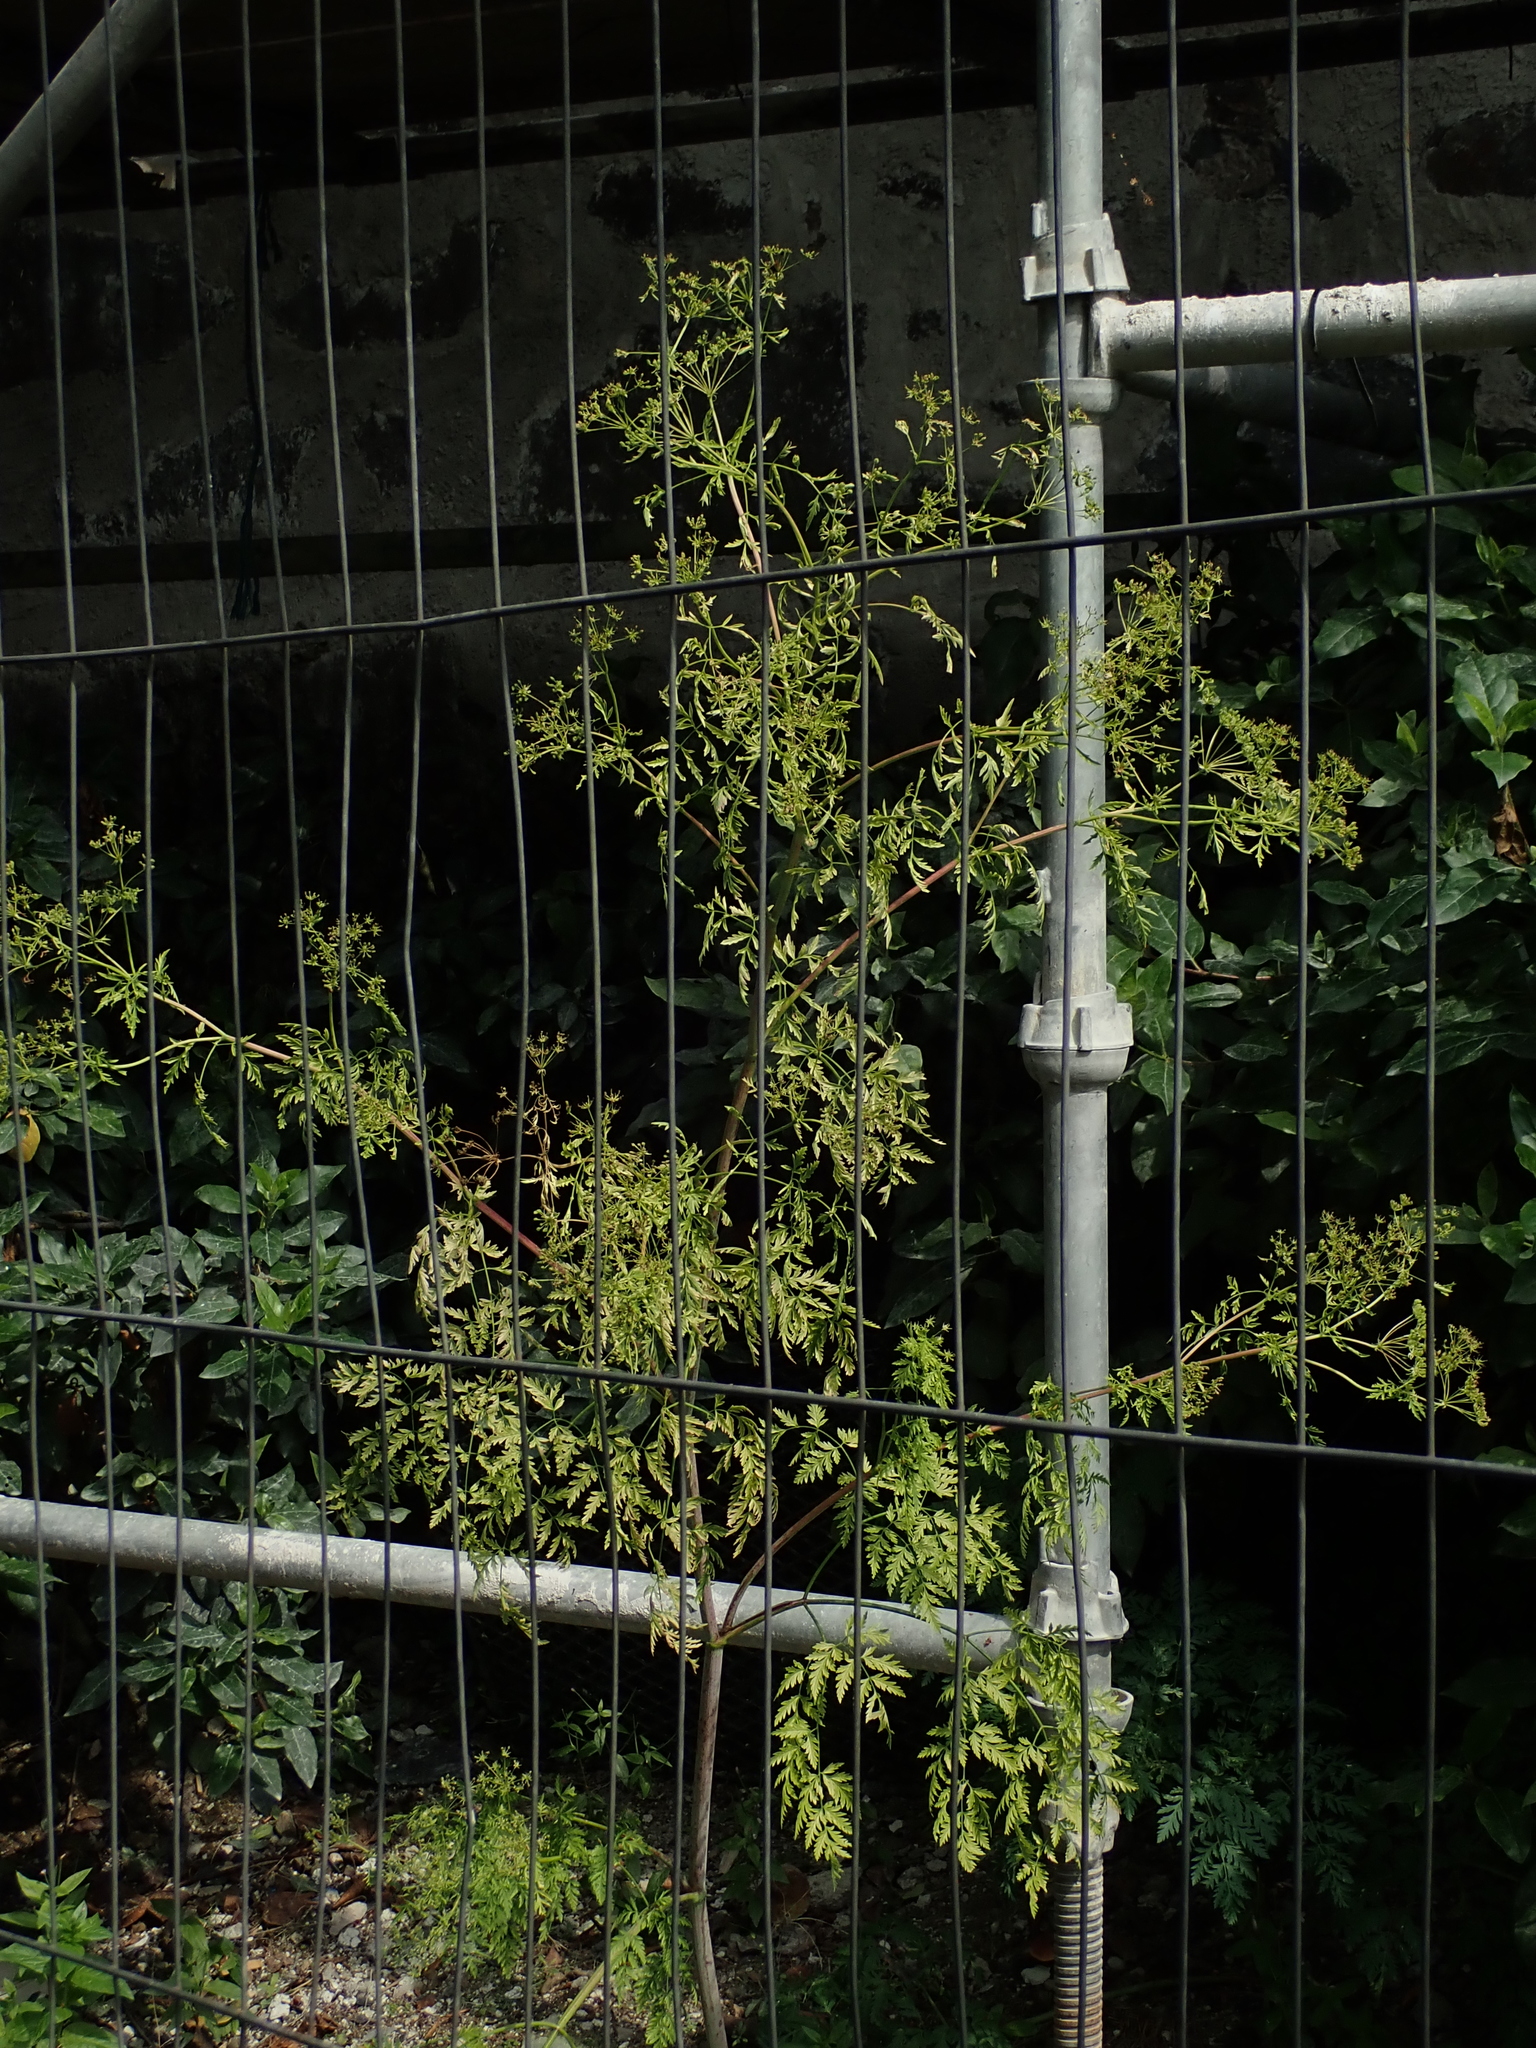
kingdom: Plantae
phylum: Tracheophyta
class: Magnoliopsida
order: Apiales
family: Apiaceae
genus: Conium
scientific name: Conium maculatum
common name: Hemlock
